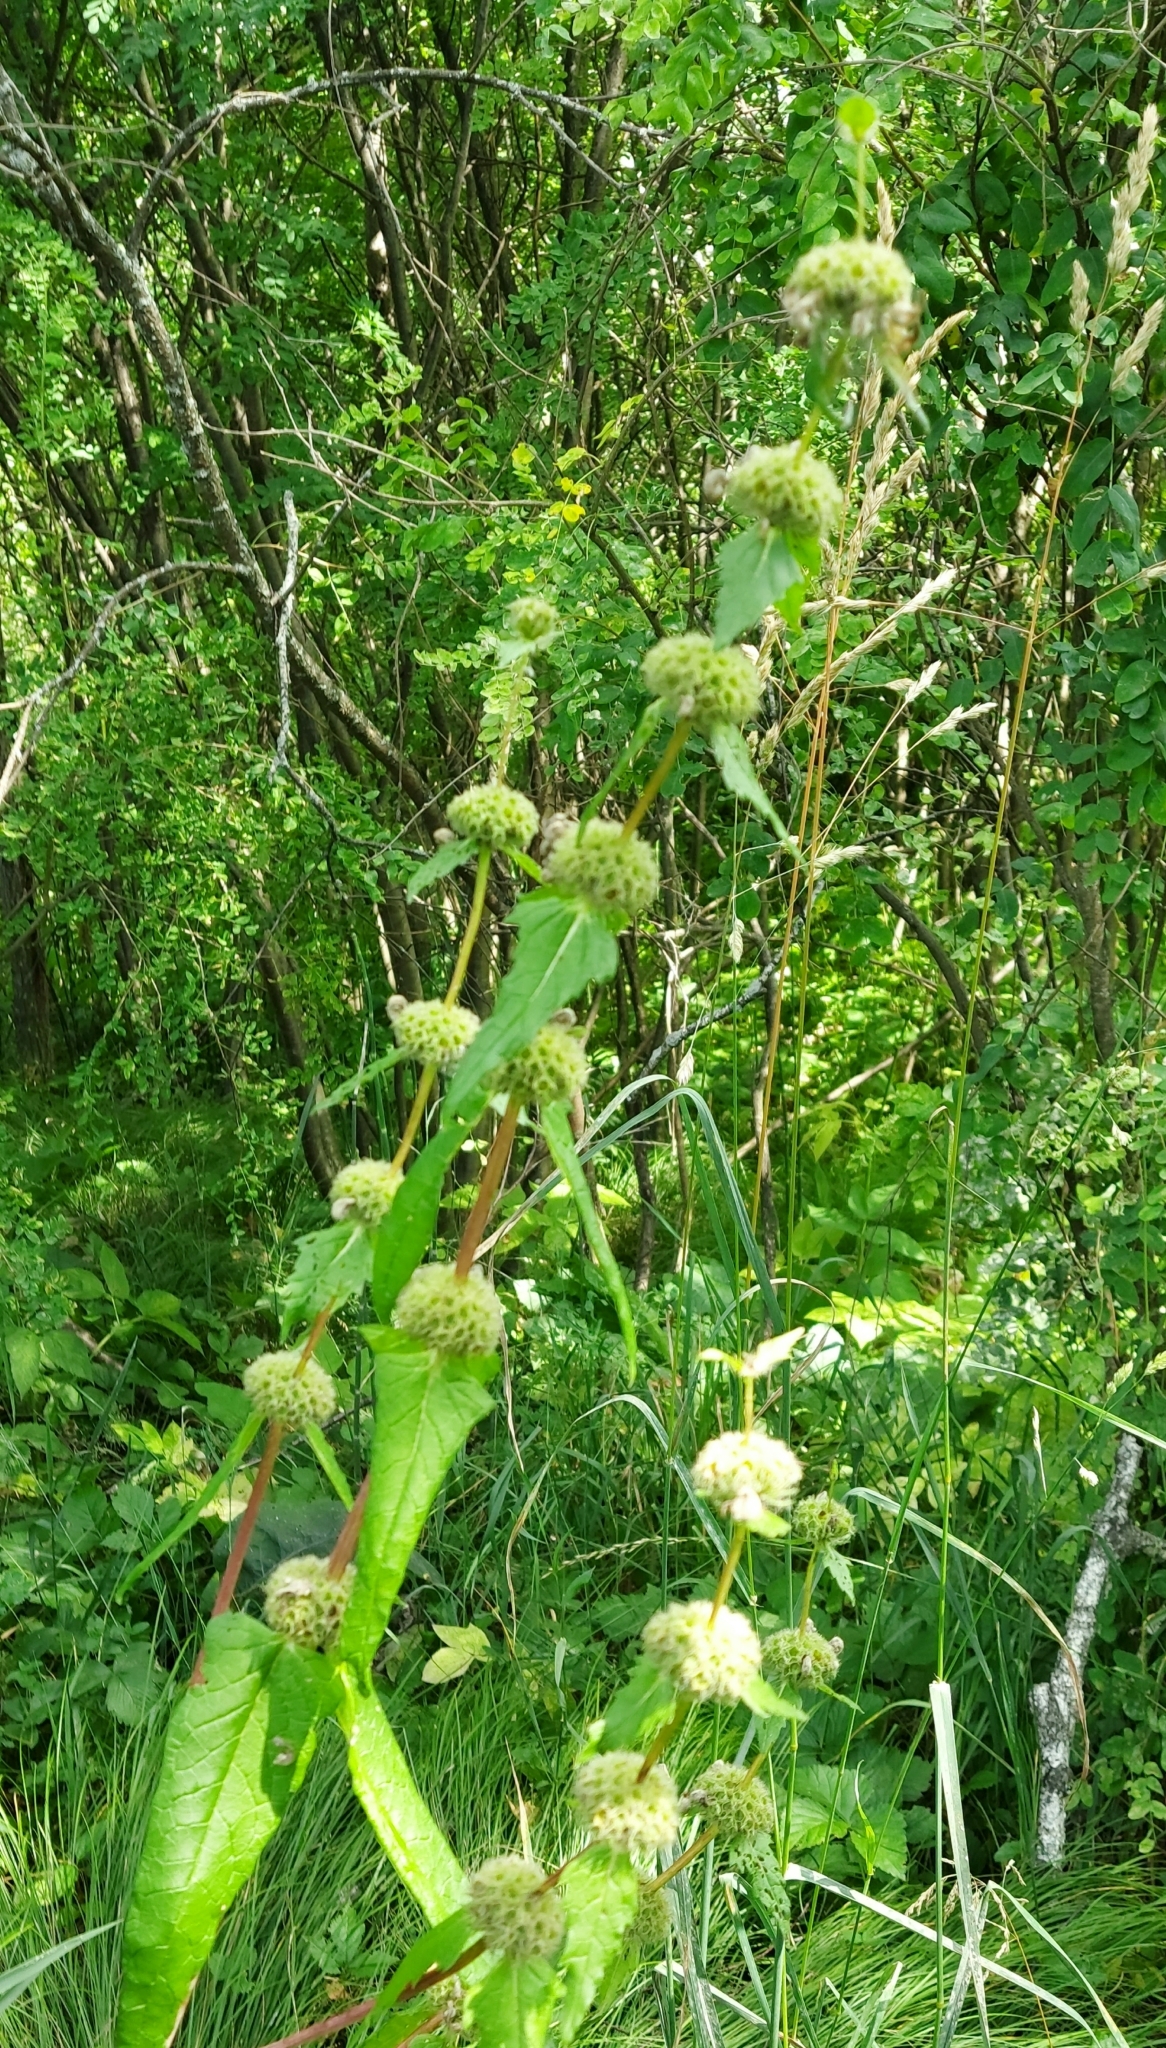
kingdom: Plantae
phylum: Tracheophyta
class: Magnoliopsida
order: Lamiales
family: Lamiaceae
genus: Phlomoides
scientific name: Phlomoides tuberosa
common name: Tuberous jerusalem sage
